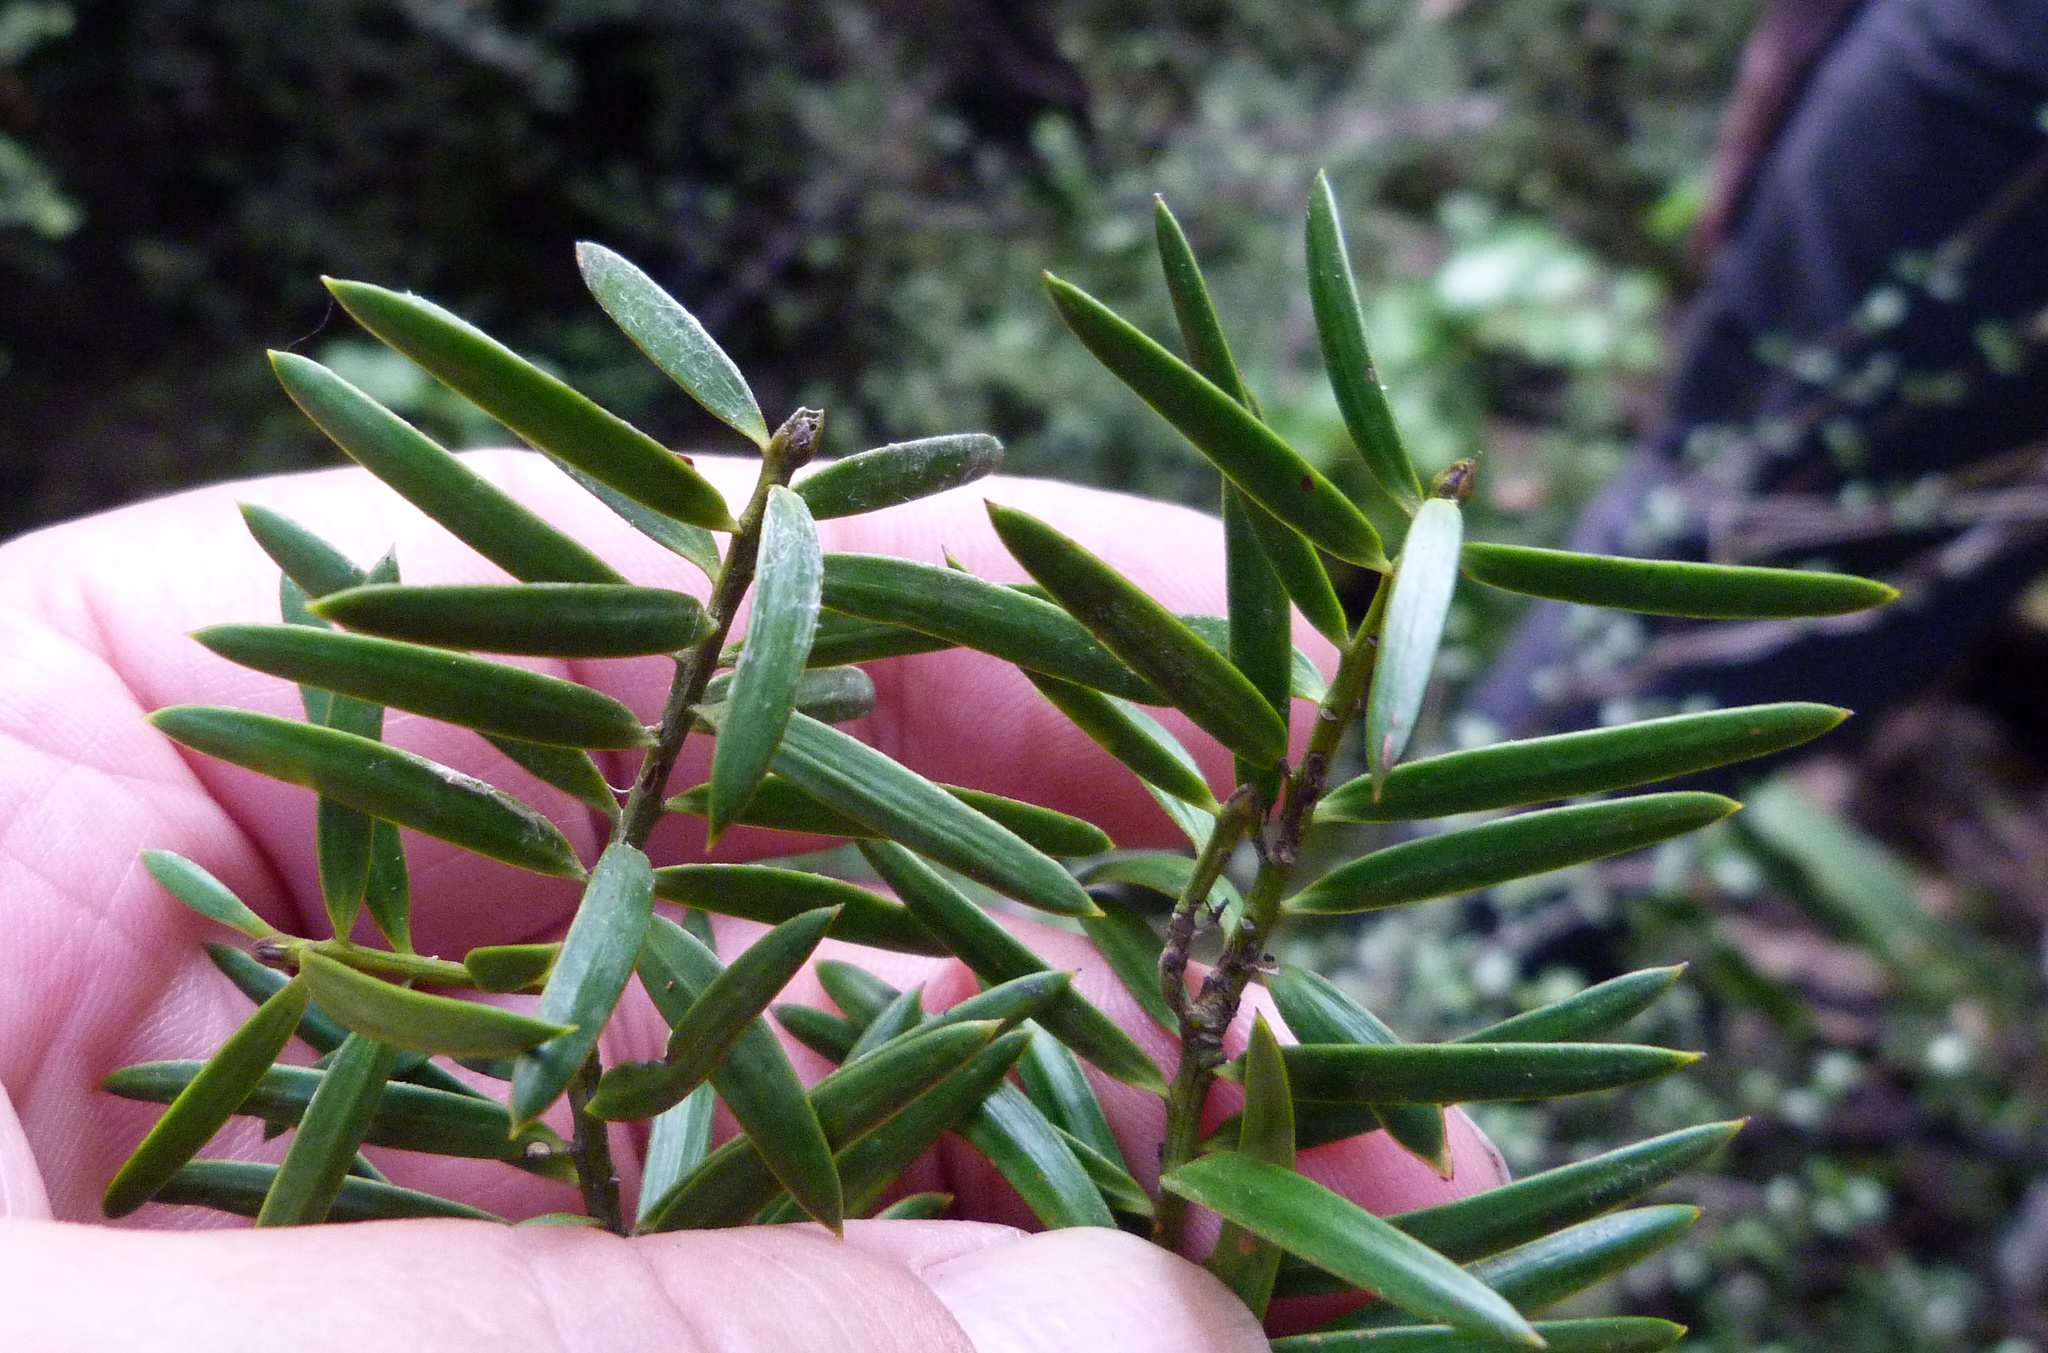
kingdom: Plantae
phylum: Tracheophyta
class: Pinopsida
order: Pinales
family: Podocarpaceae
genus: Podocarpus
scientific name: Podocarpus
